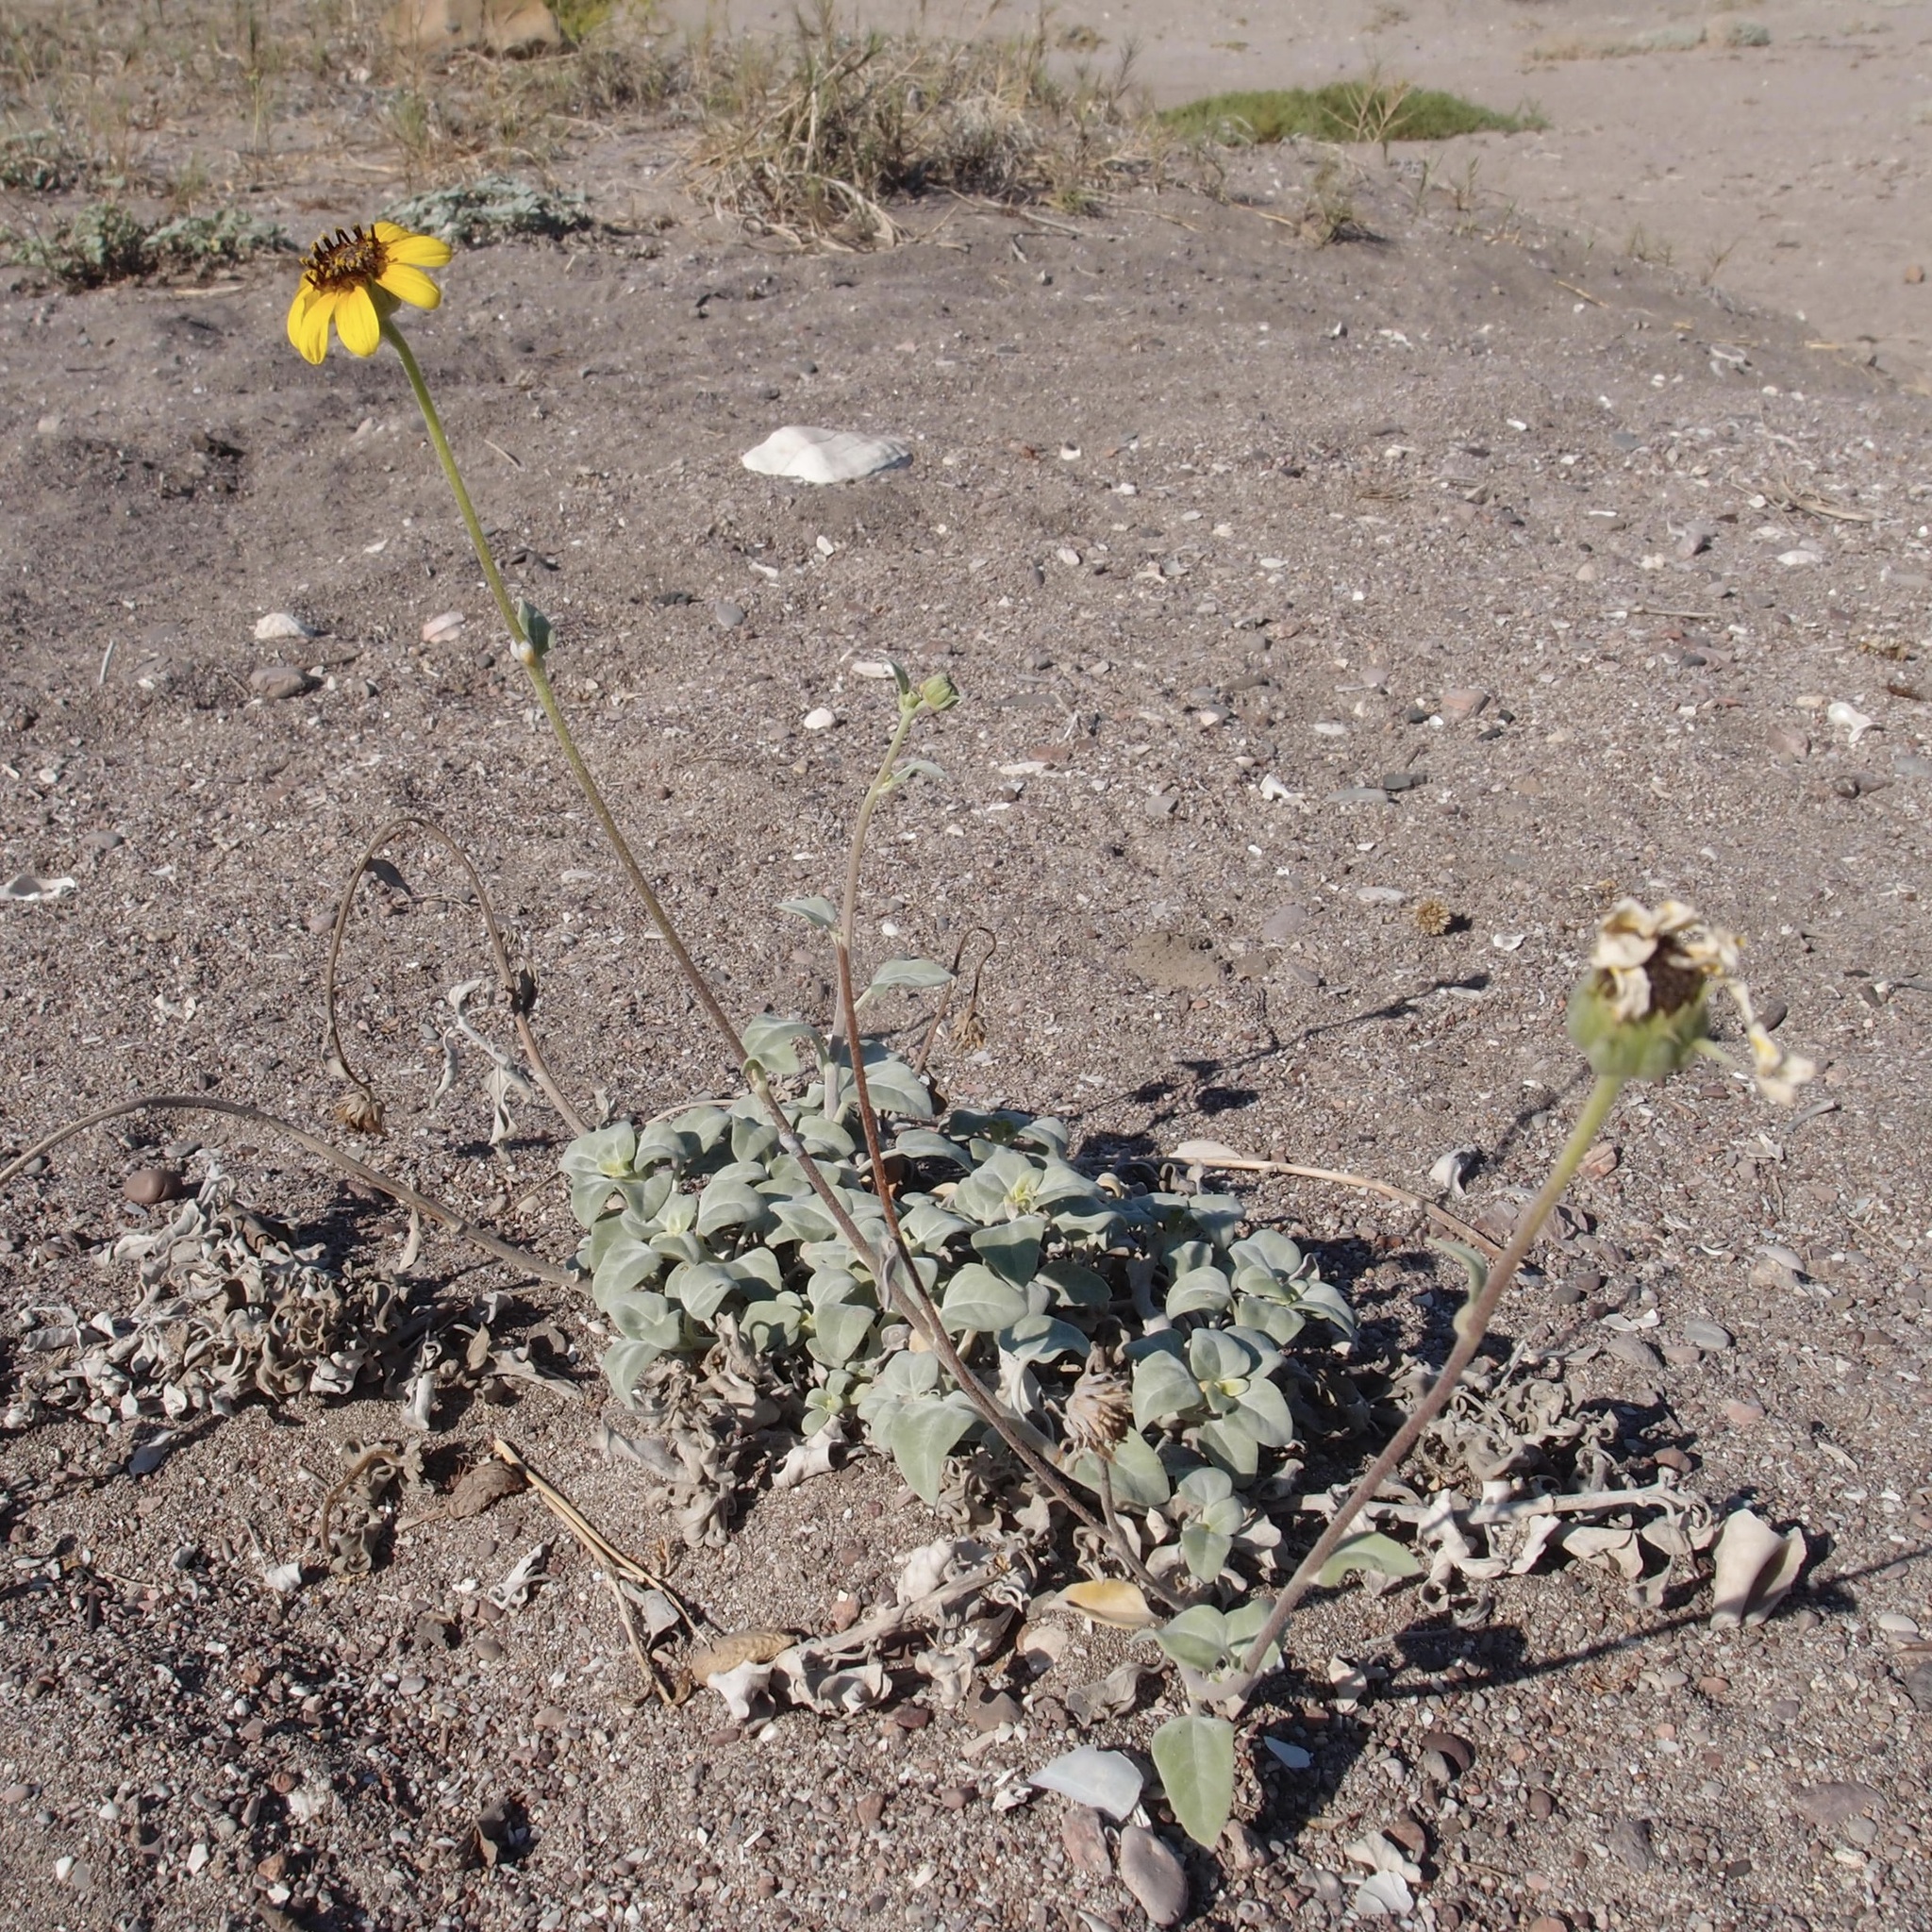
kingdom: Plantae
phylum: Tracheophyta
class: Magnoliopsida
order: Asterales
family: Asteraceae
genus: Helianthus
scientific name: Helianthus niveus
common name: Snowy sunflower
